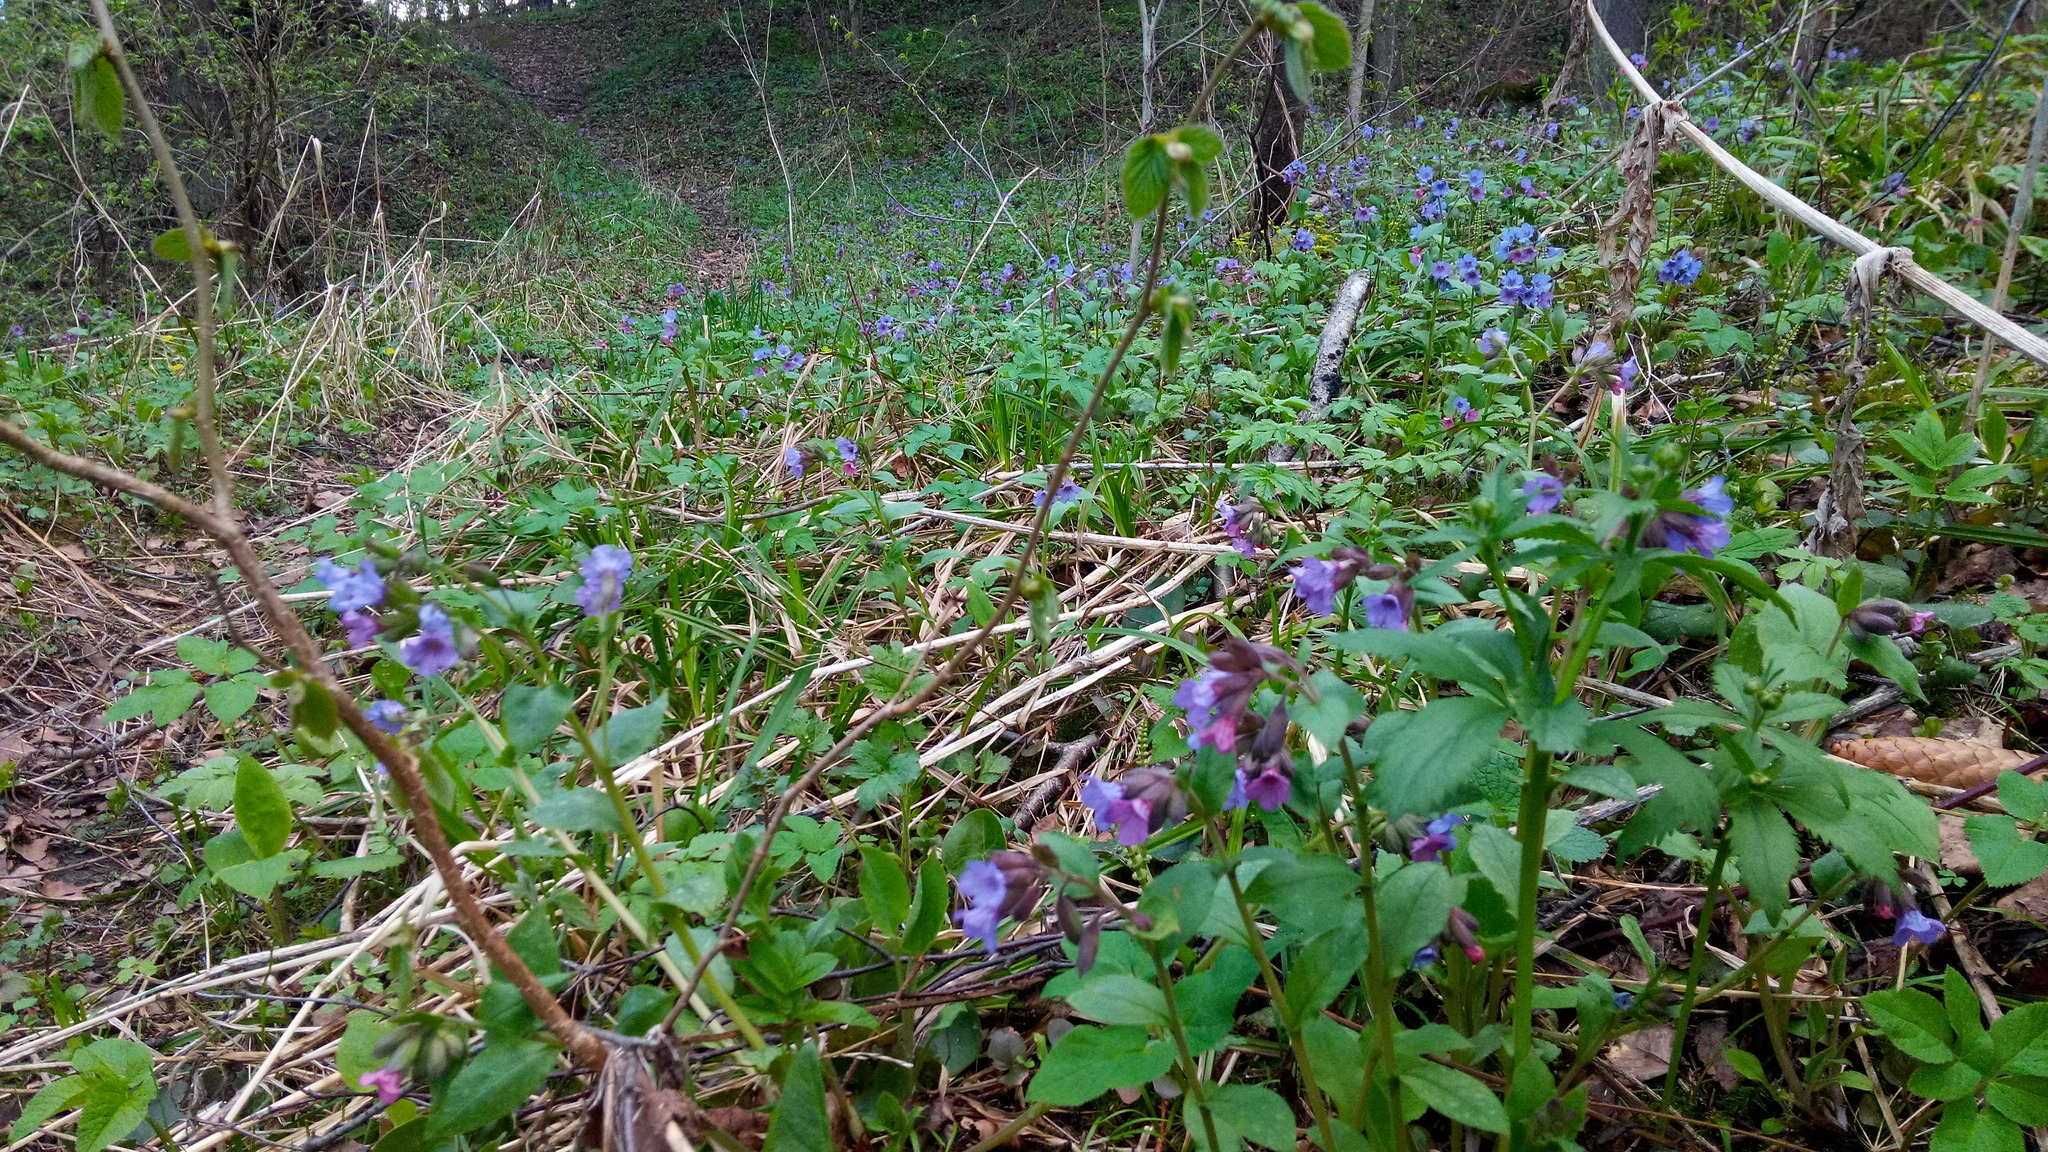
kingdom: Plantae
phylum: Tracheophyta
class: Magnoliopsida
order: Boraginales
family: Boraginaceae
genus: Pulmonaria
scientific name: Pulmonaria obscura
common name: Suffolk lungwort
